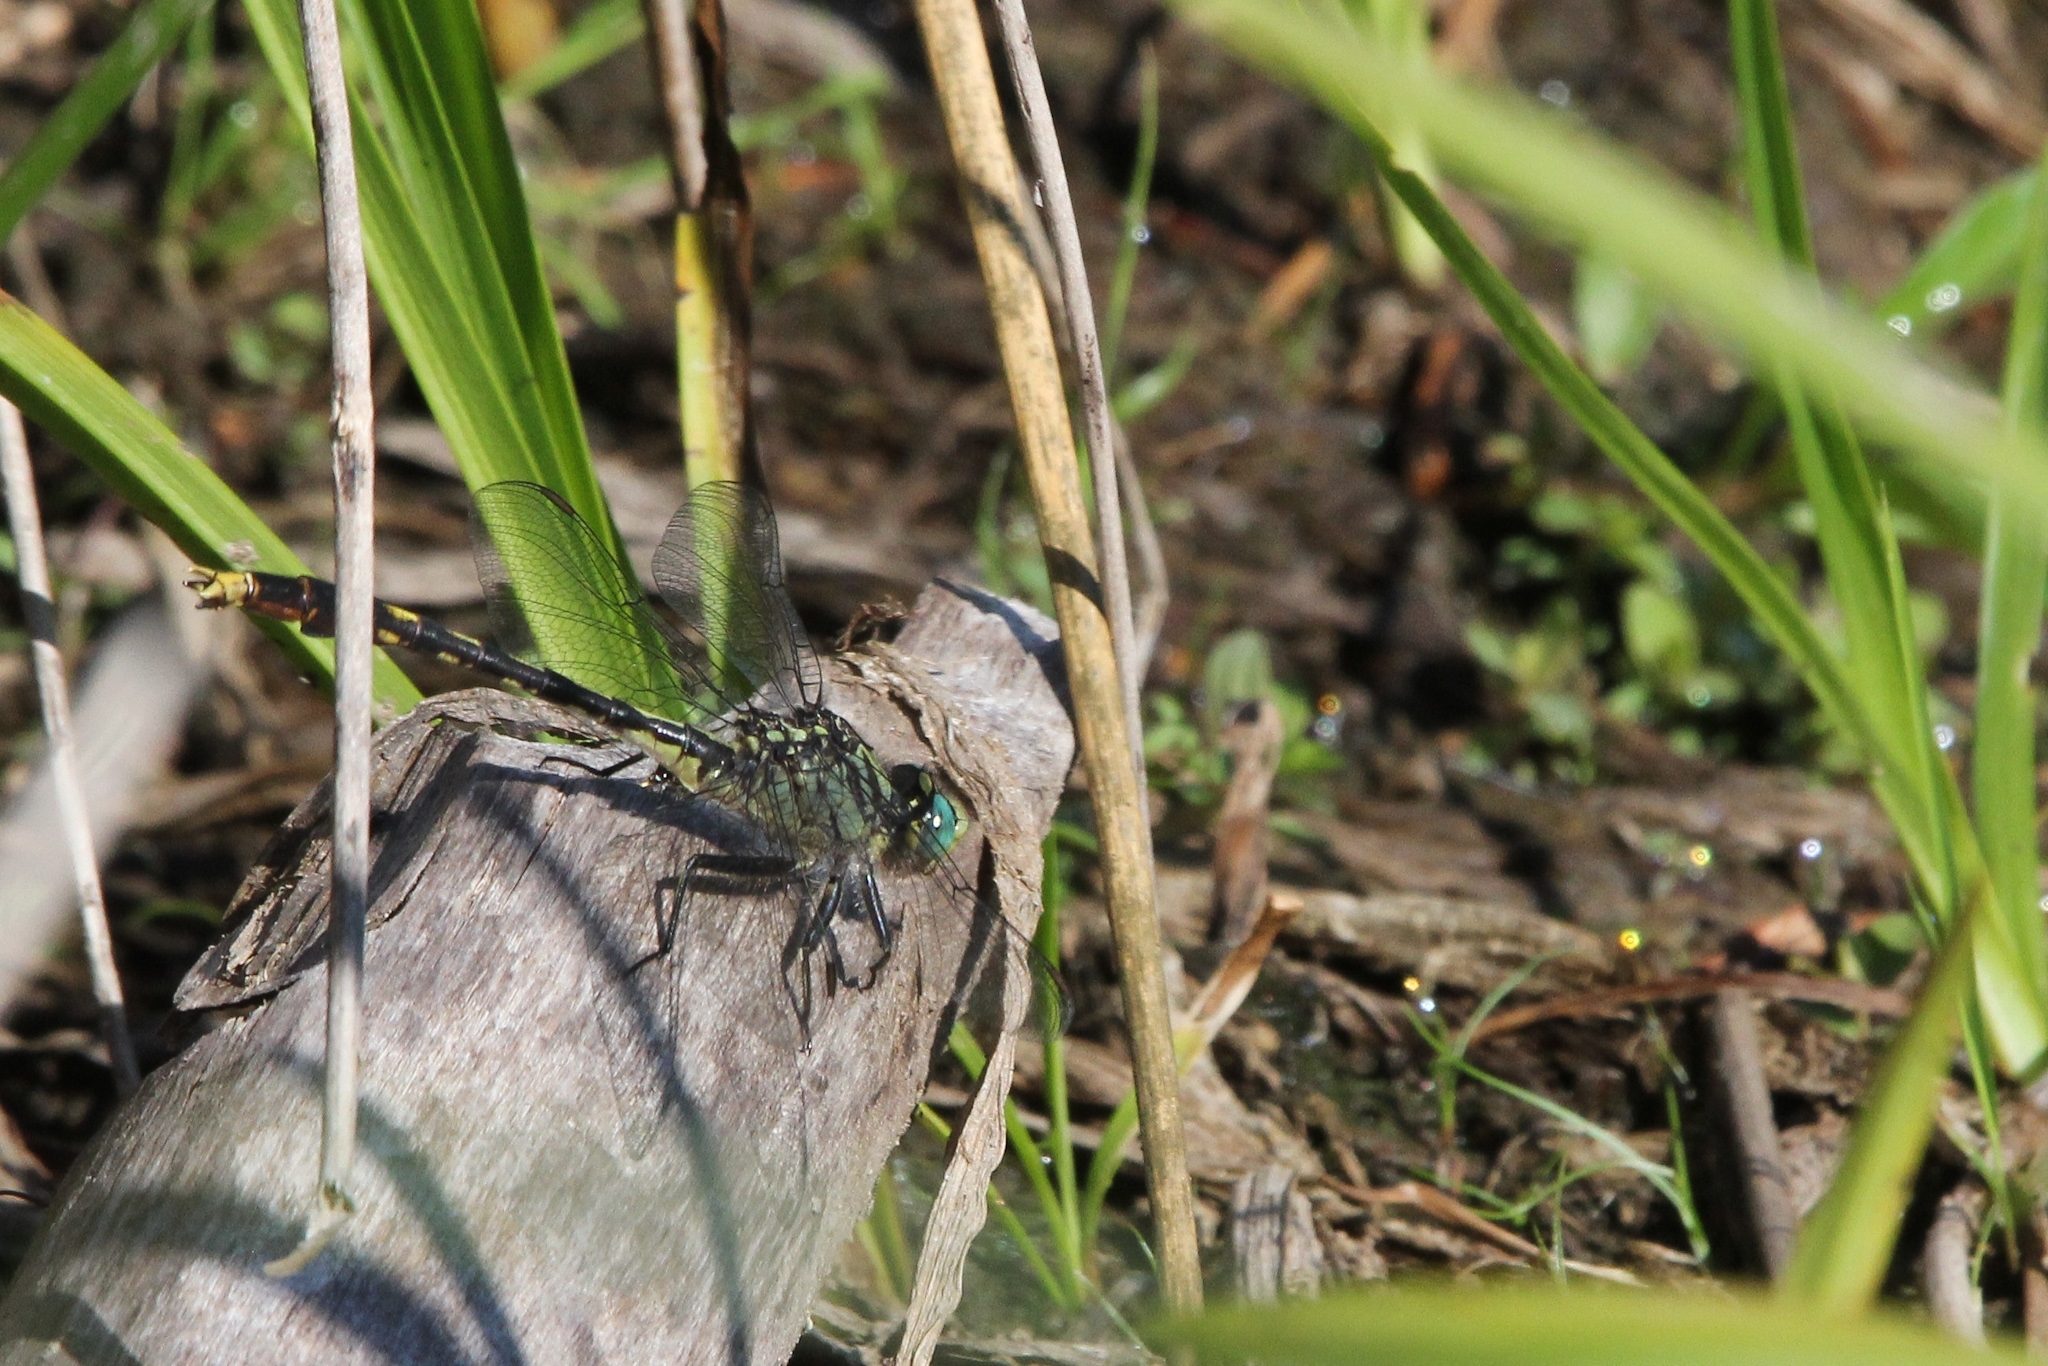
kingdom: Animalia
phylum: Arthropoda
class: Insecta
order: Odonata
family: Gomphidae
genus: Arigomphus
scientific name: Arigomphus villosipes
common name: Unicorn clubtail
